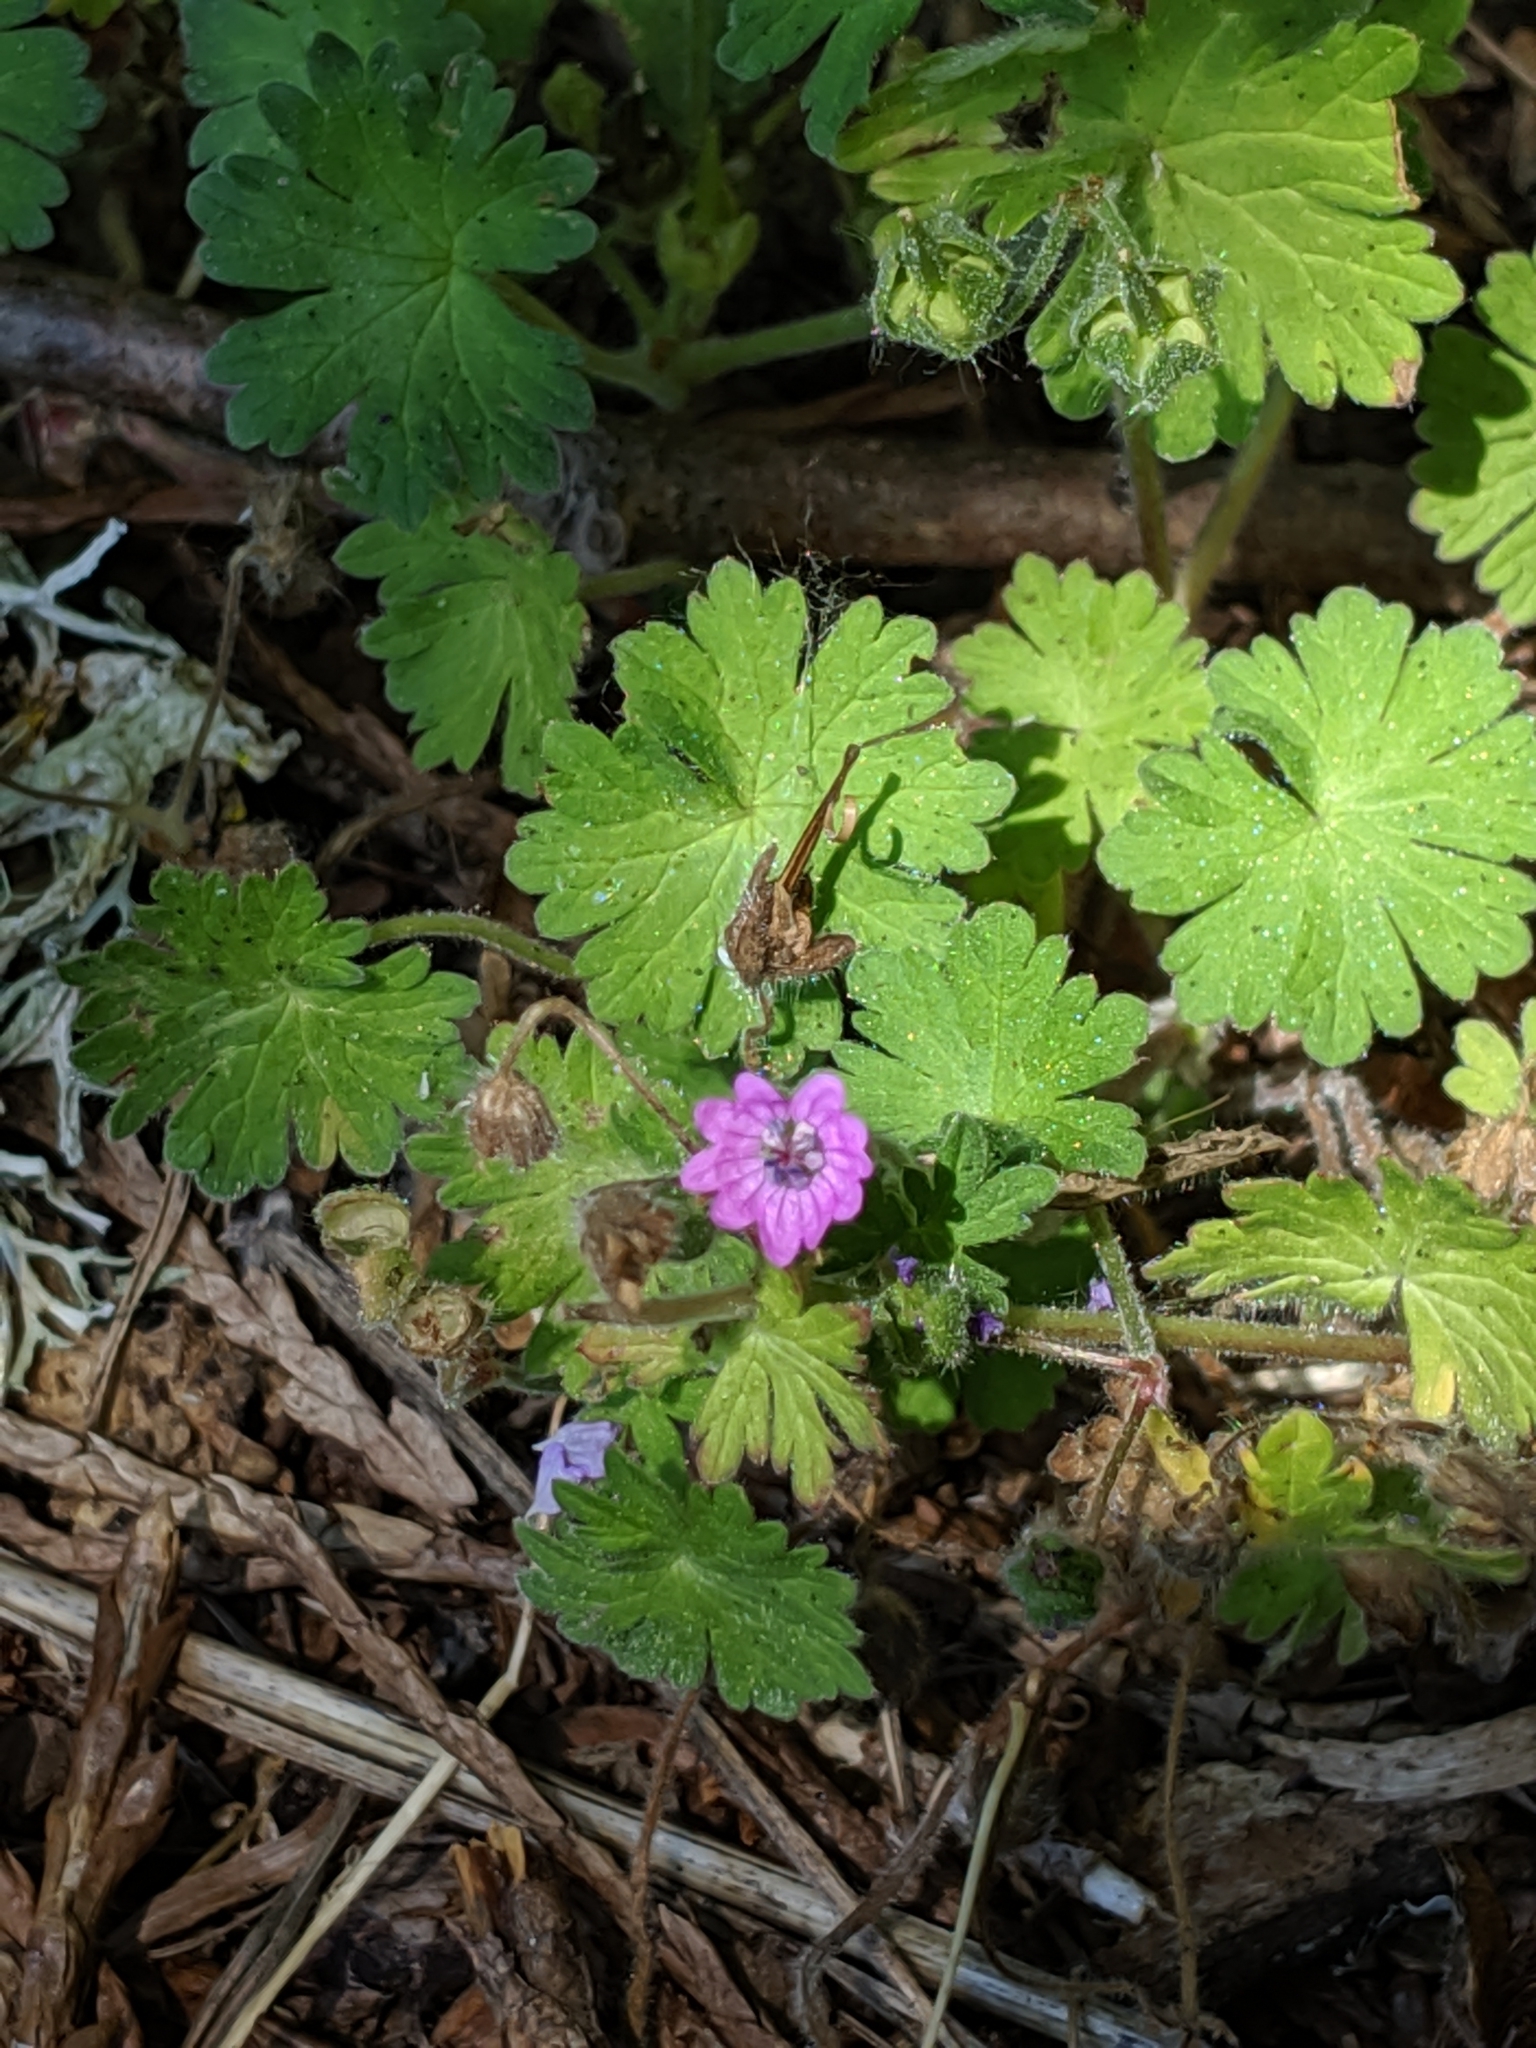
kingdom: Plantae
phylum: Tracheophyta
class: Magnoliopsida
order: Geraniales
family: Geraniaceae
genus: Geranium
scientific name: Geranium molle
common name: Dove's-foot crane's-bill
